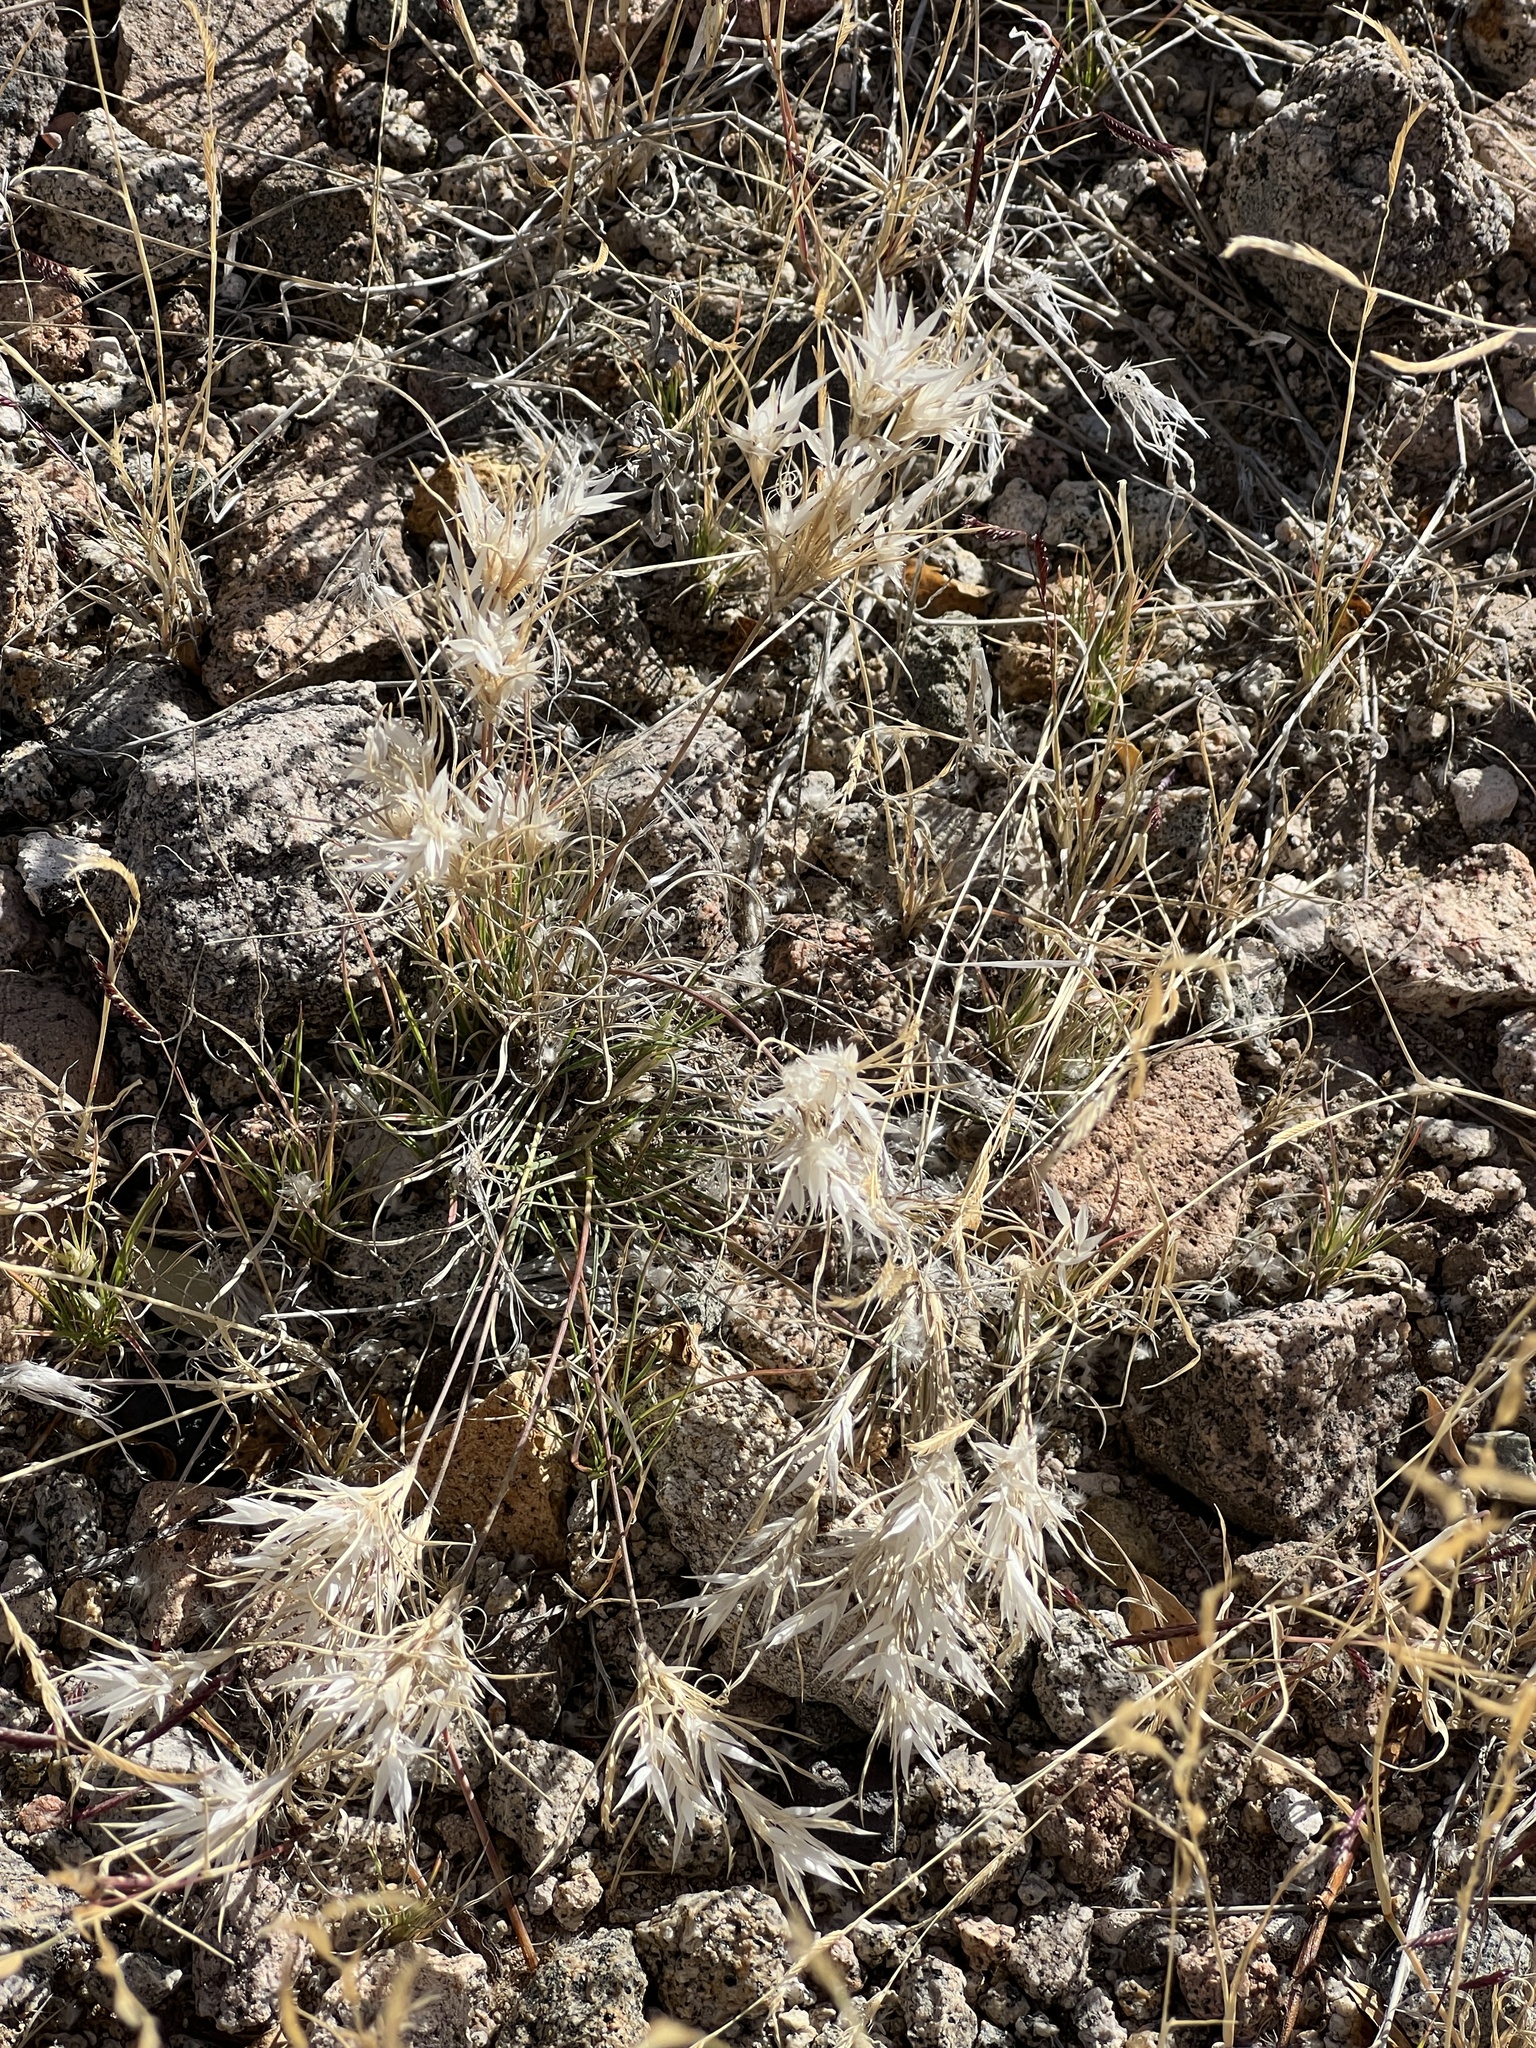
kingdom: Plantae
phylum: Tracheophyta
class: Liliopsida
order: Poales
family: Poaceae
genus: Dasyochloa
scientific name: Dasyochloa pulchella
